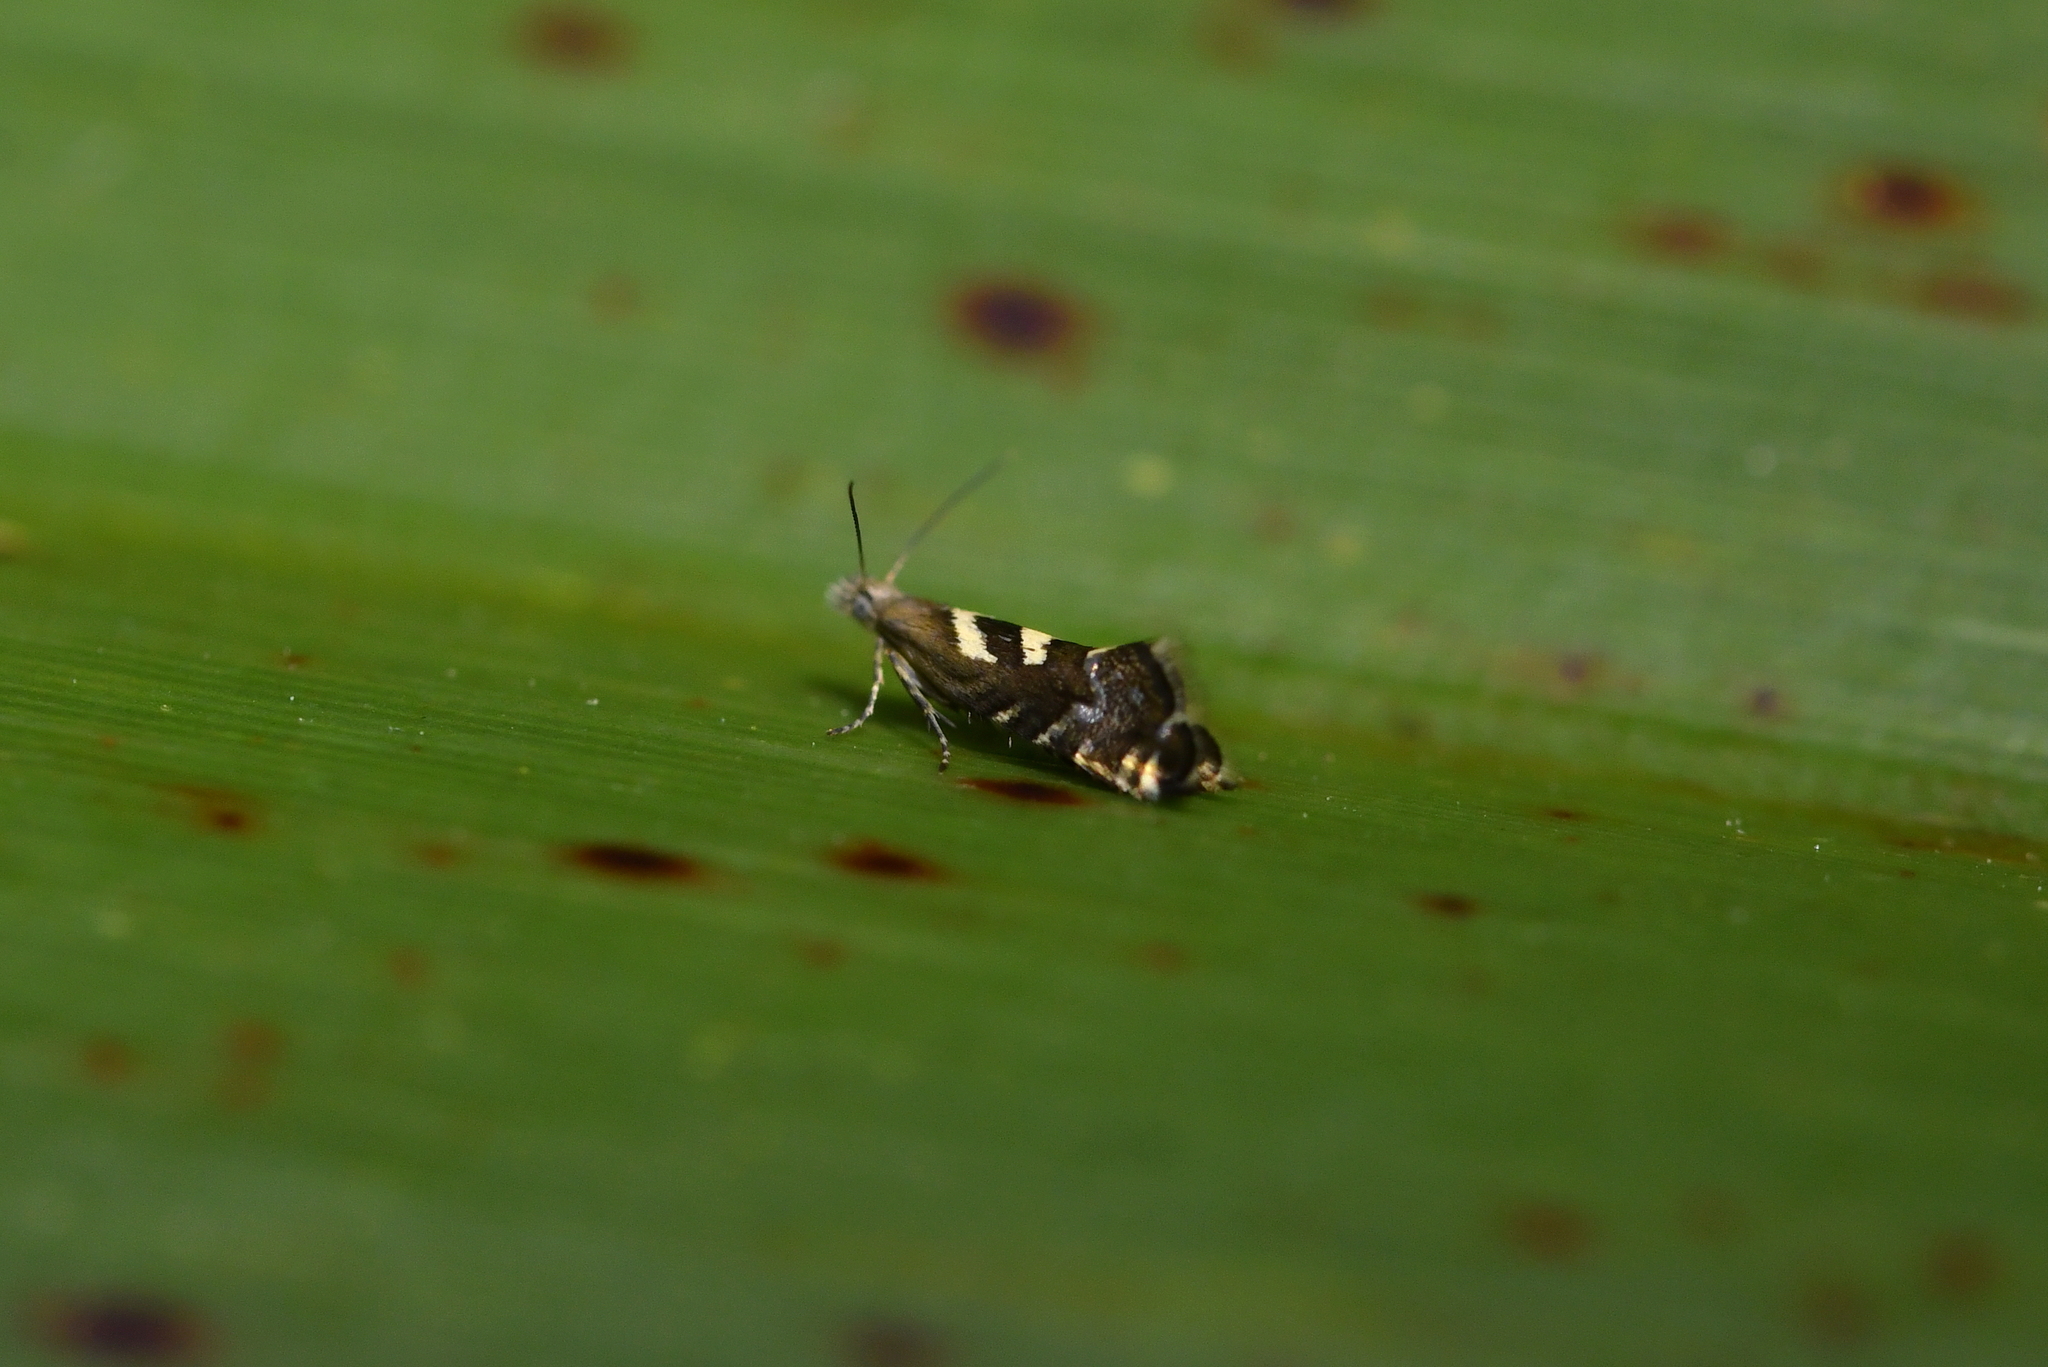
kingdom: Animalia
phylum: Arthropoda
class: Insecta
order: Lepidoptera
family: Glyphipterigidae
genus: Glyphipterix
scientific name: Glyphipterix asteronota
